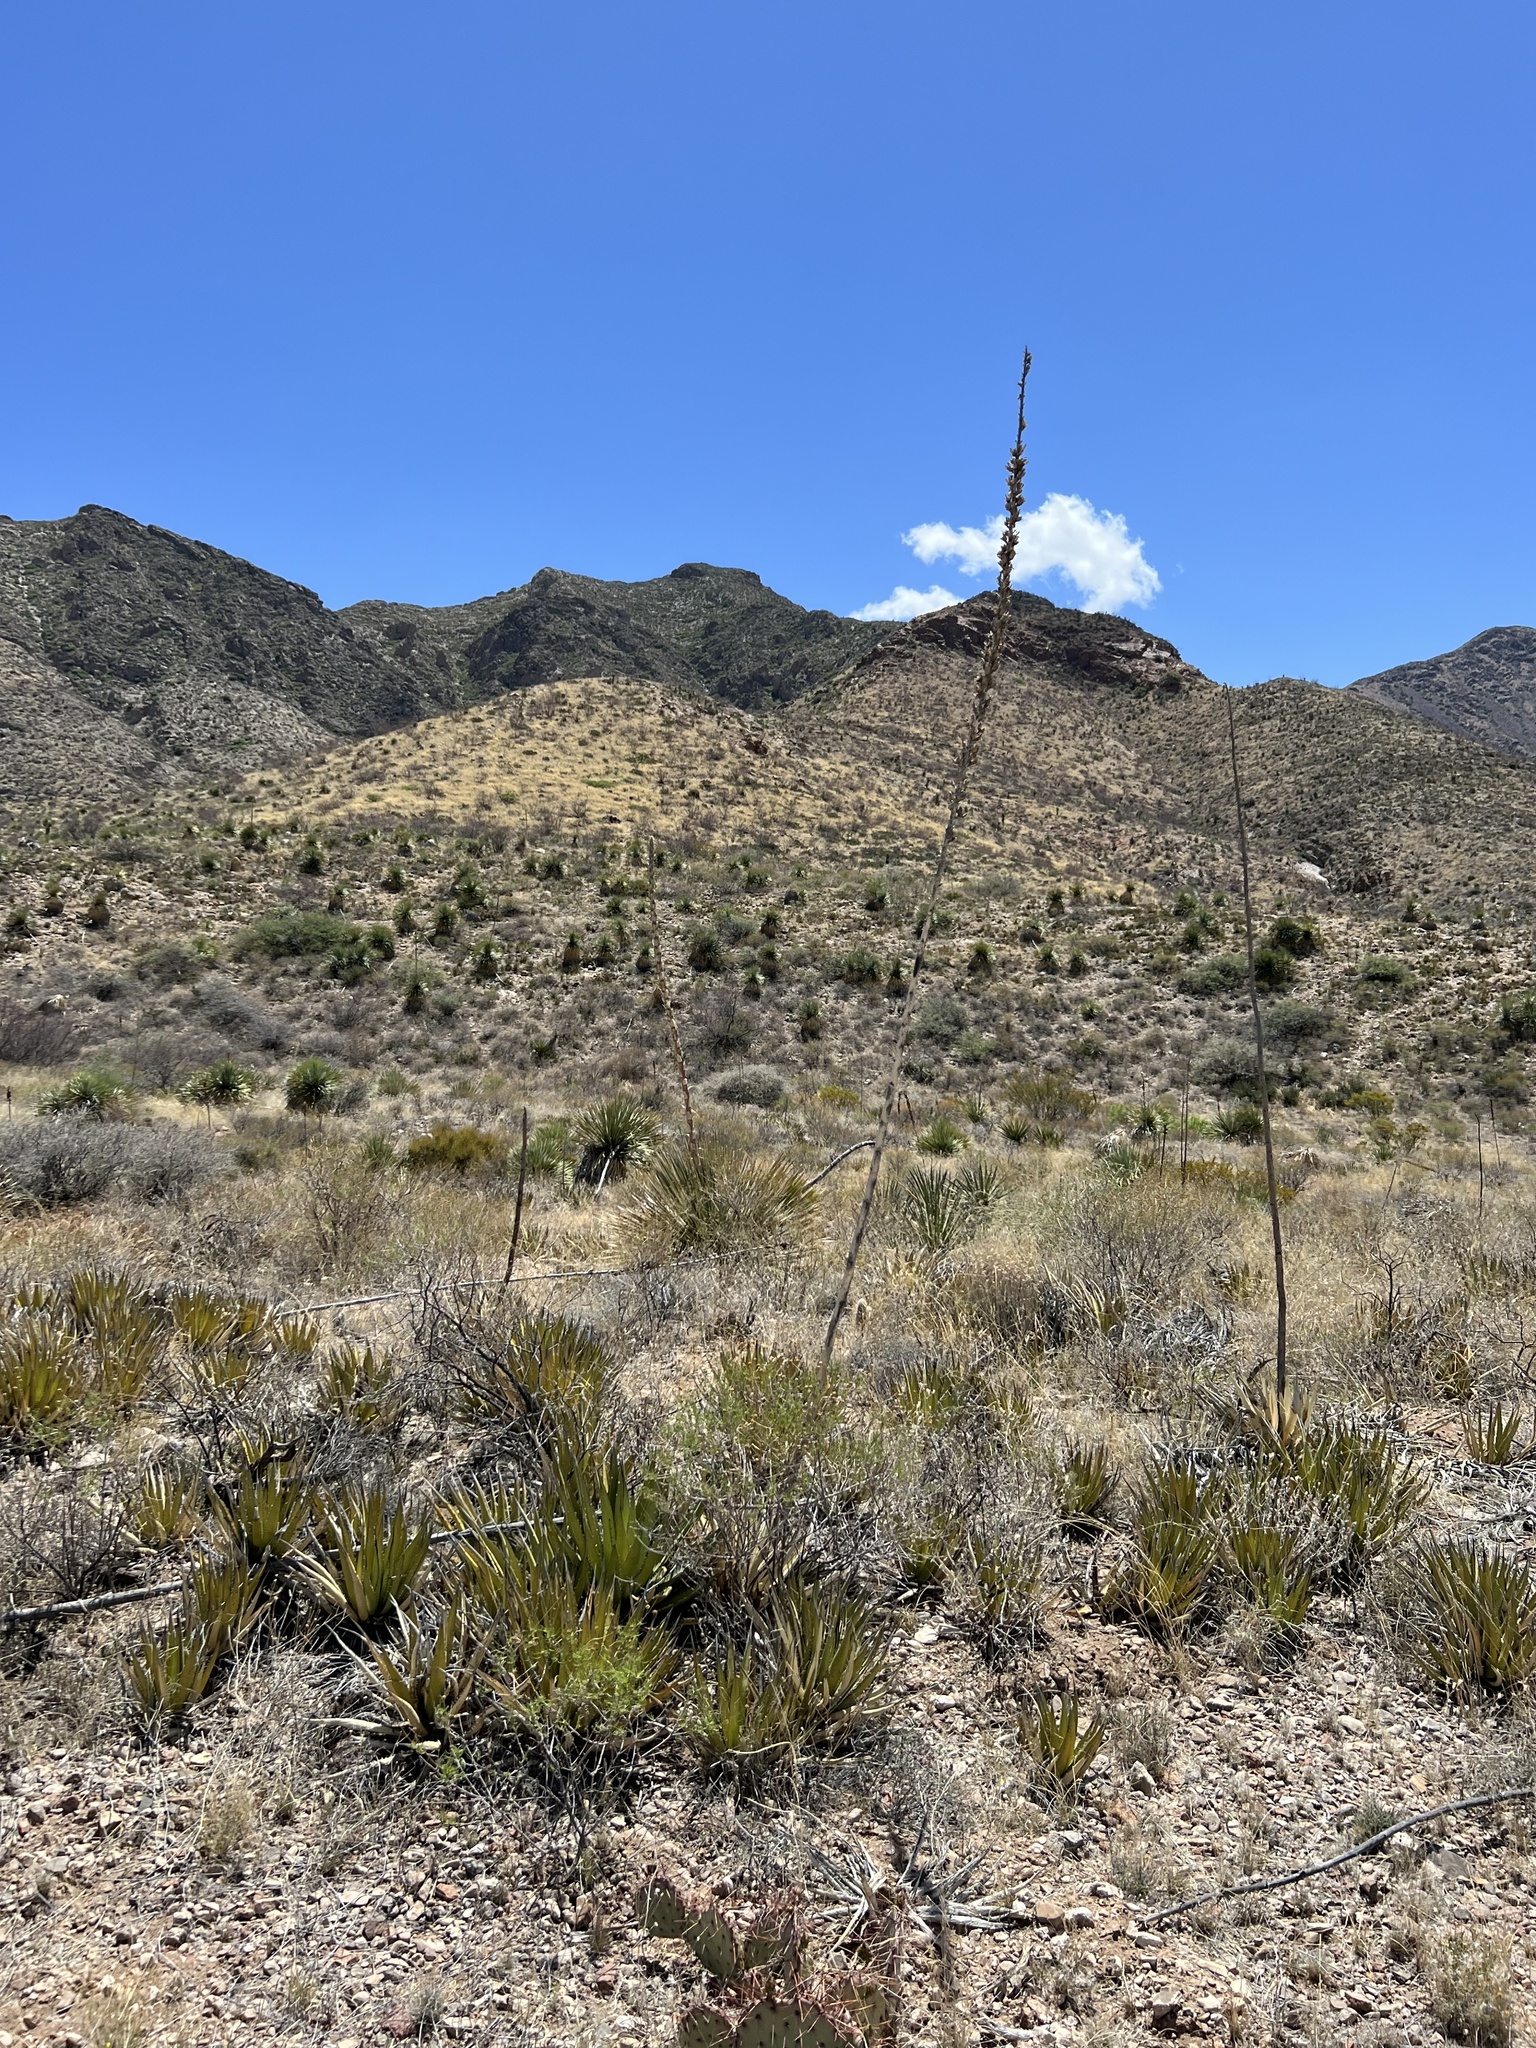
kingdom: Plantae
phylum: Tracheophyta
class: Liliopsida
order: Asparagales
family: Asparagaceae
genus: Agave
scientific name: Agave lechuguilla
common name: Lecheguilla agave
